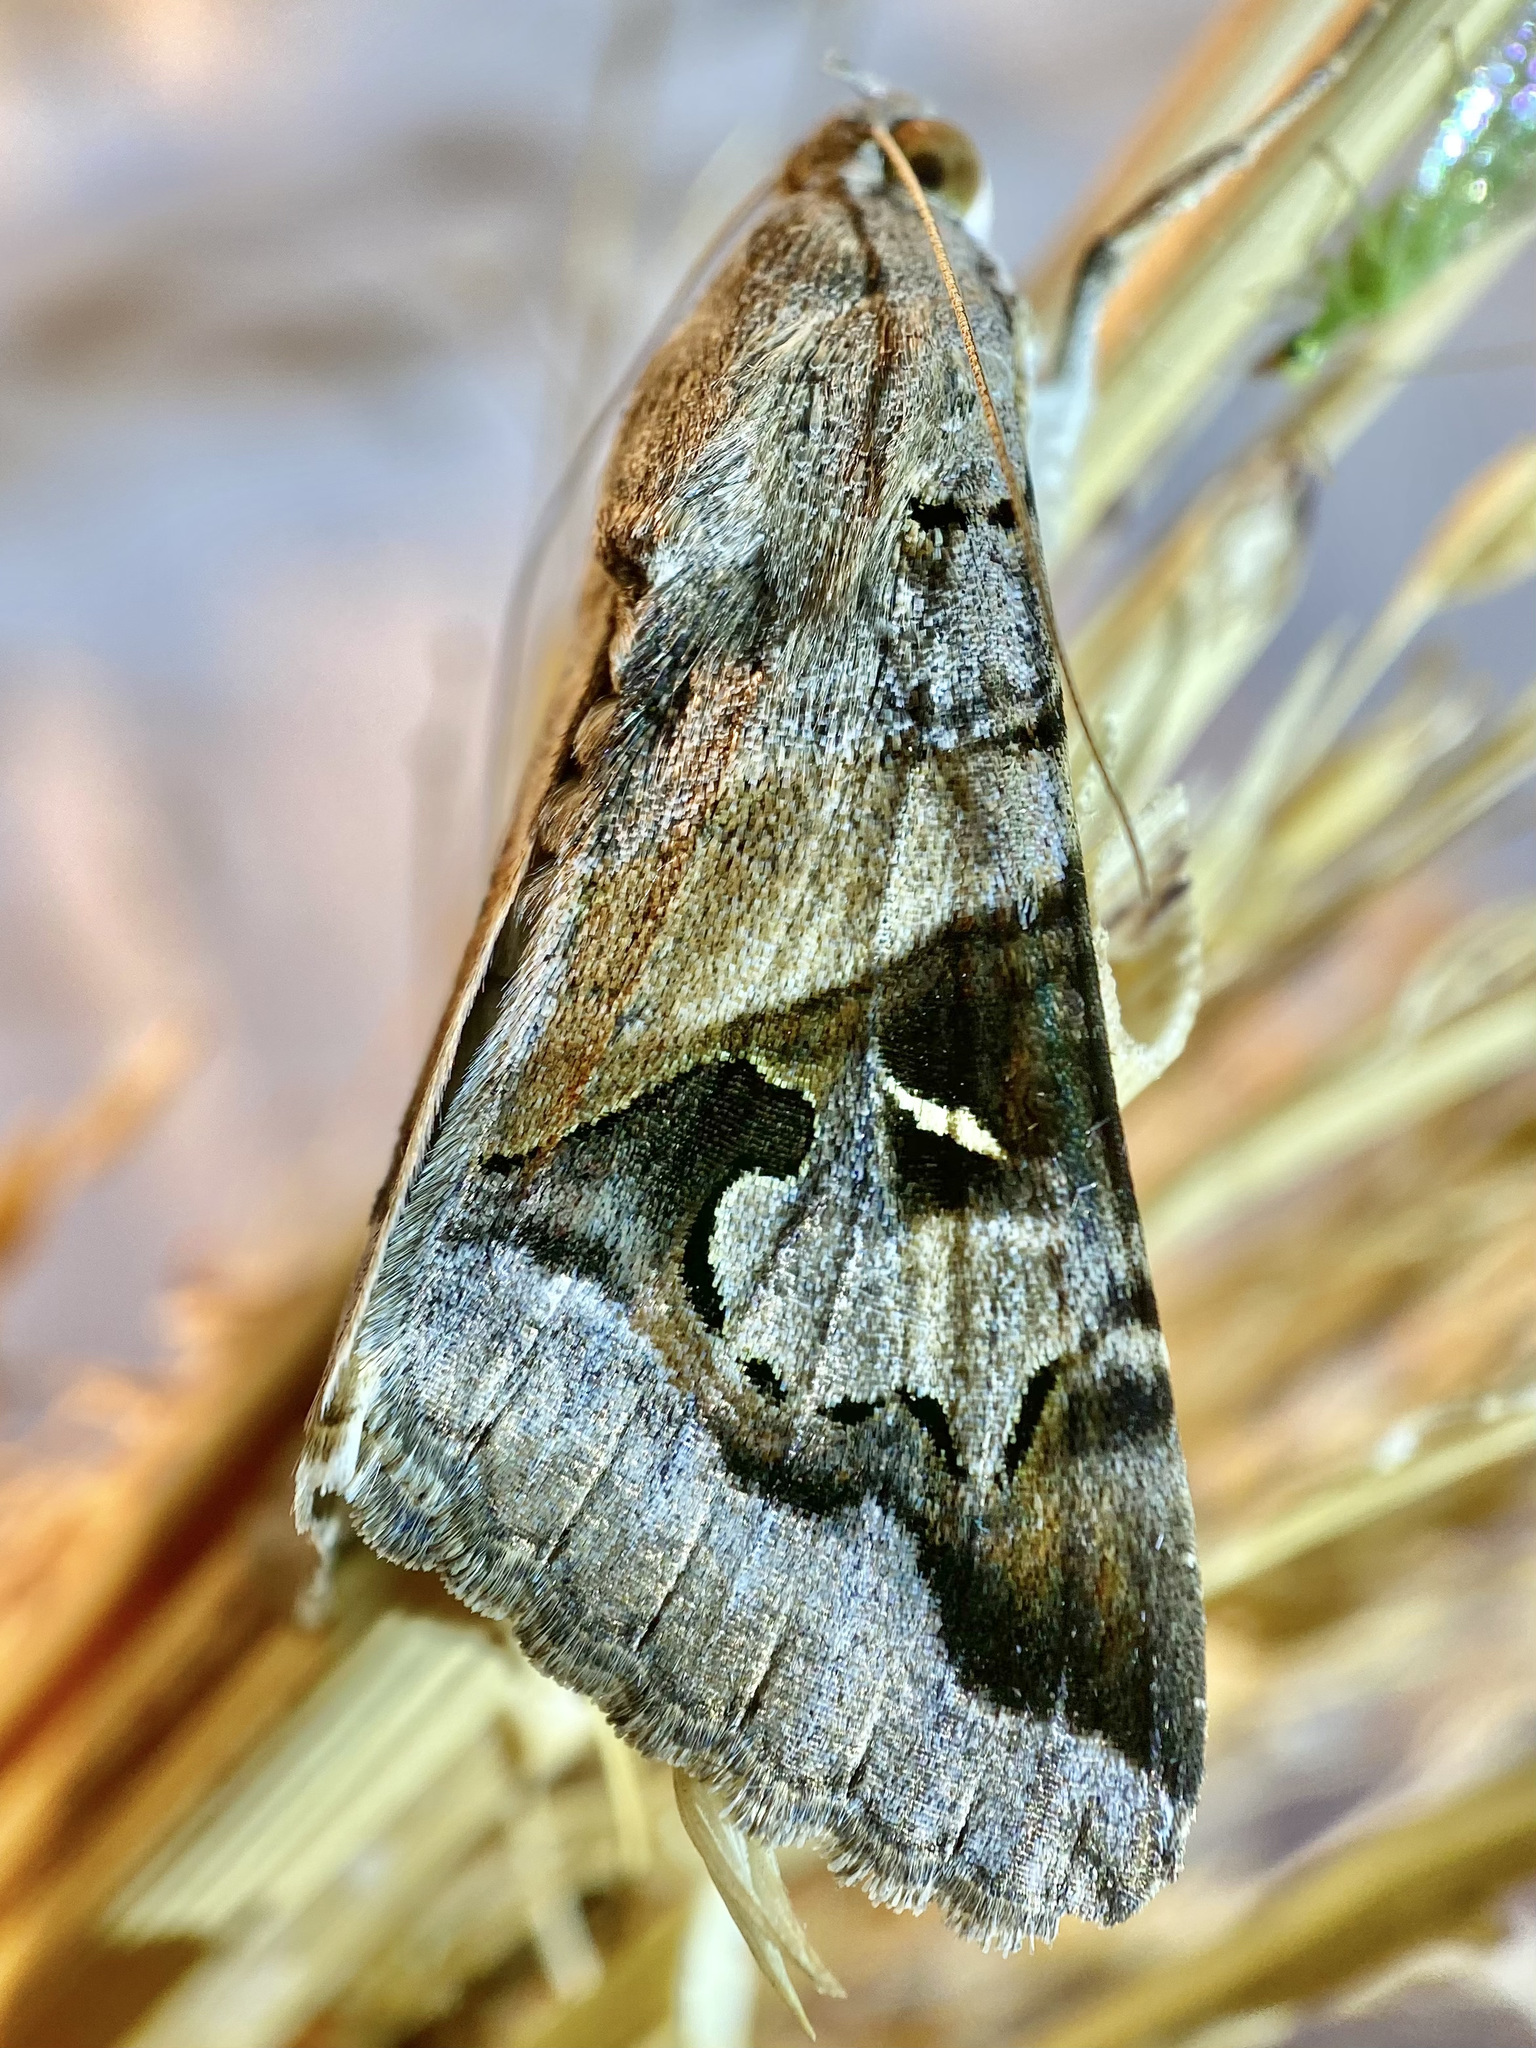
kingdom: Animalia
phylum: Arthropoda
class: Insecta
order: Lepidoptera
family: Erebidae
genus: Melipotis
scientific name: Melipotis indomita
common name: Moth
